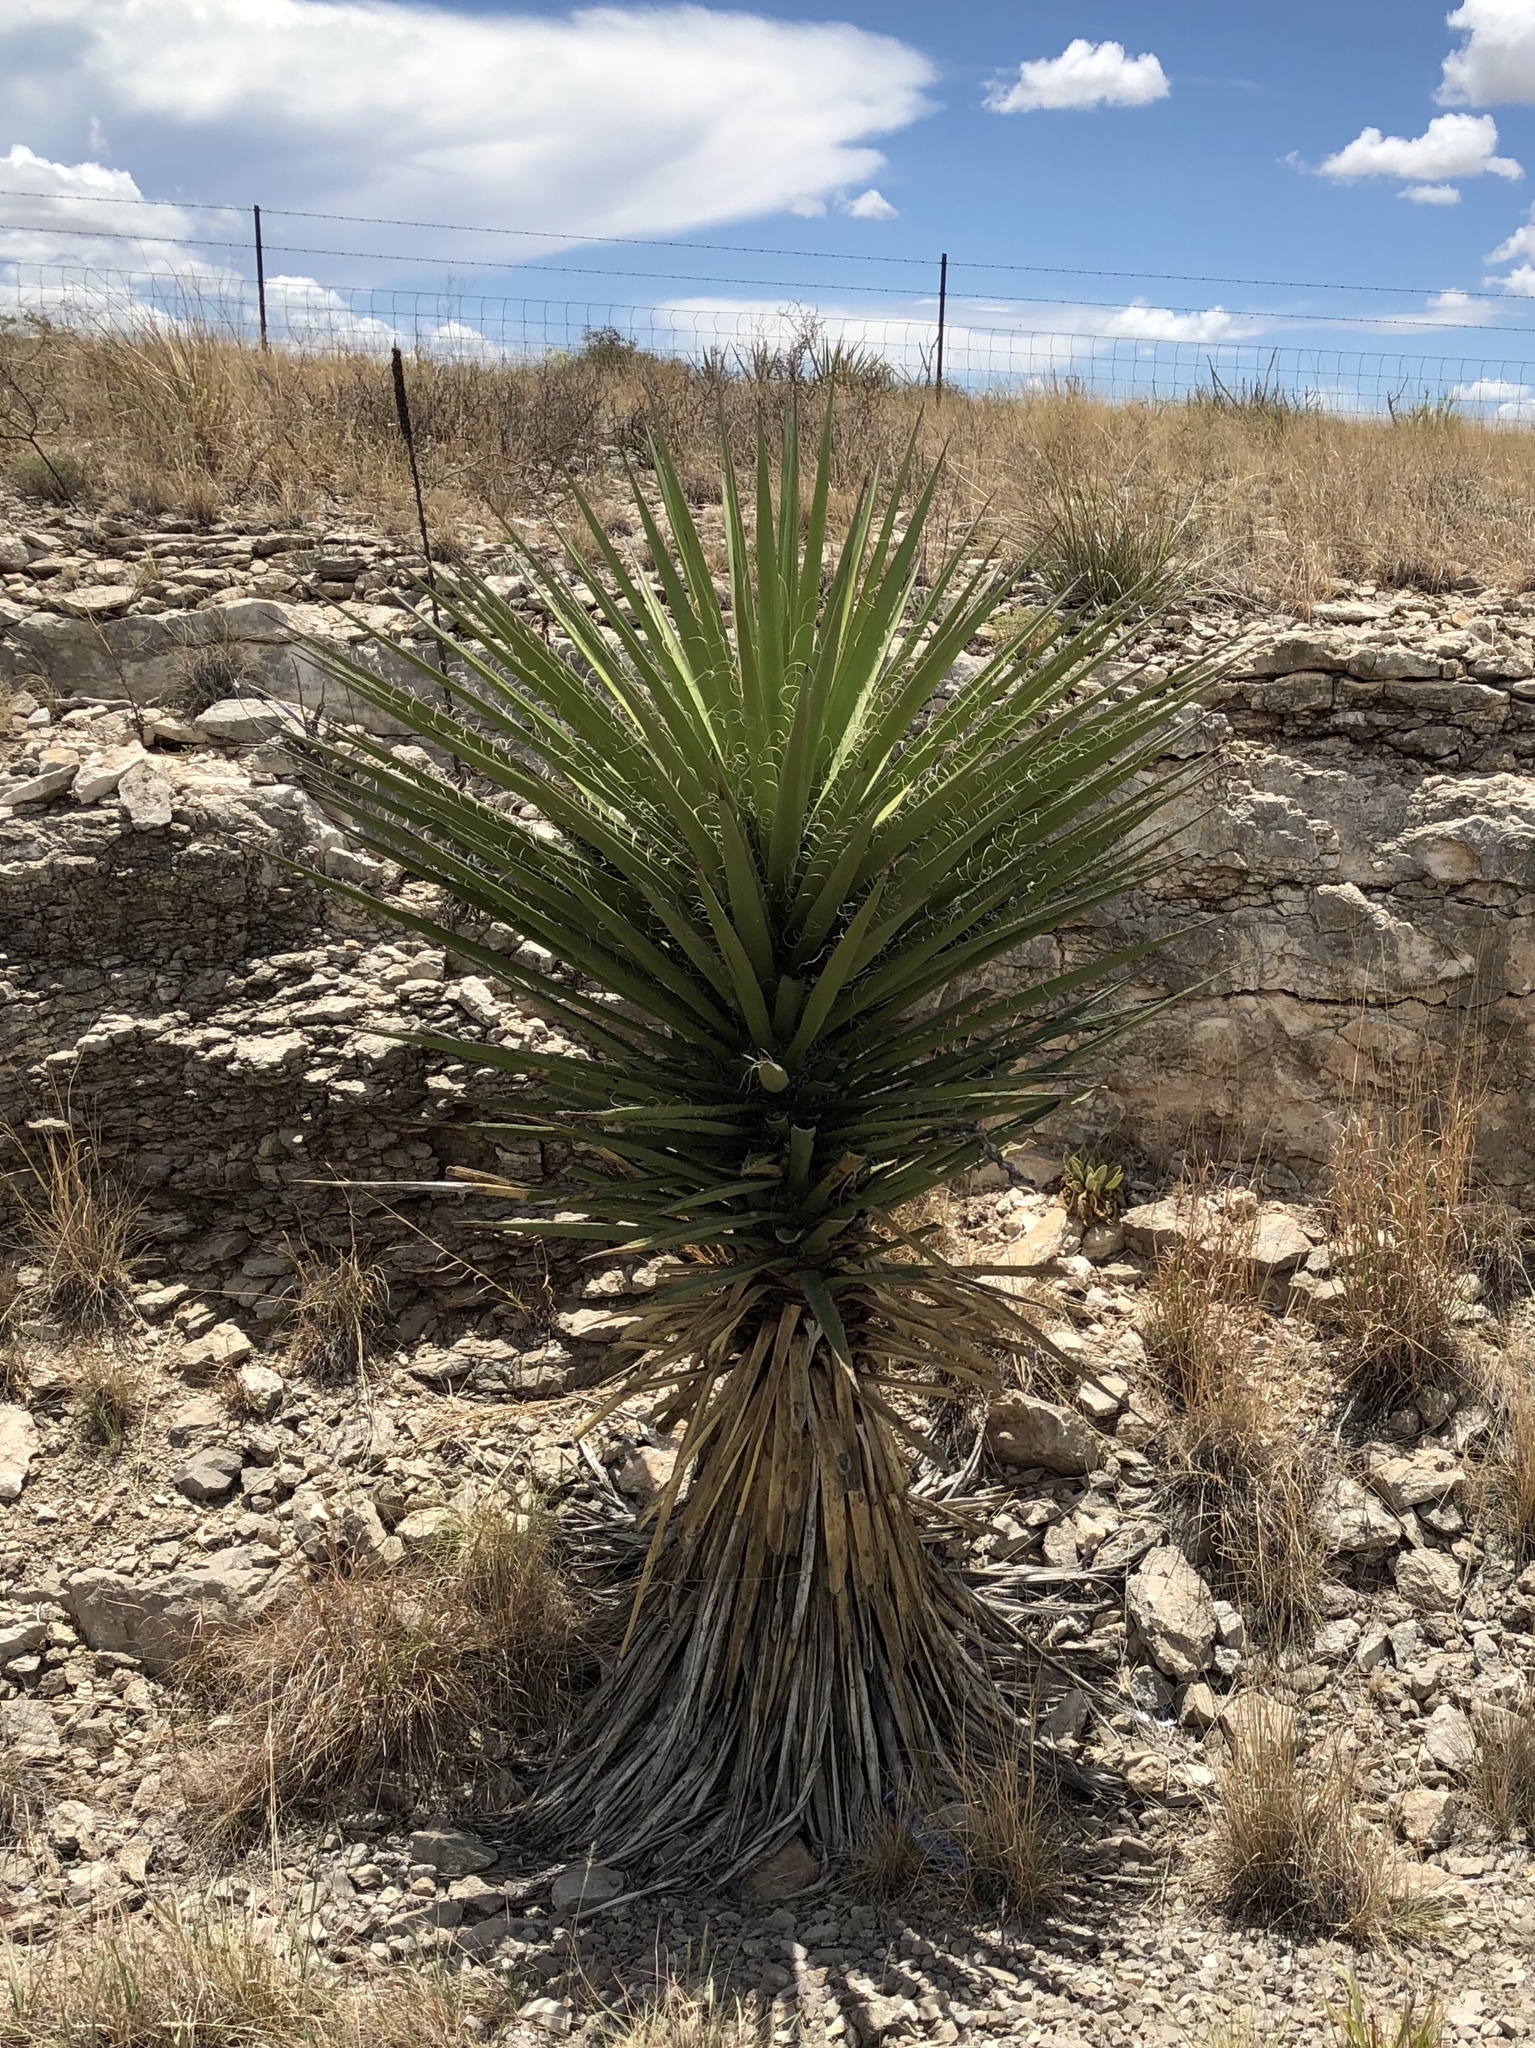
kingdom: Plantae
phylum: Tracheophyta
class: Liliopsida
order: Asparagales
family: Asparagaceae
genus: Yucca
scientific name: Yucca treculiana
